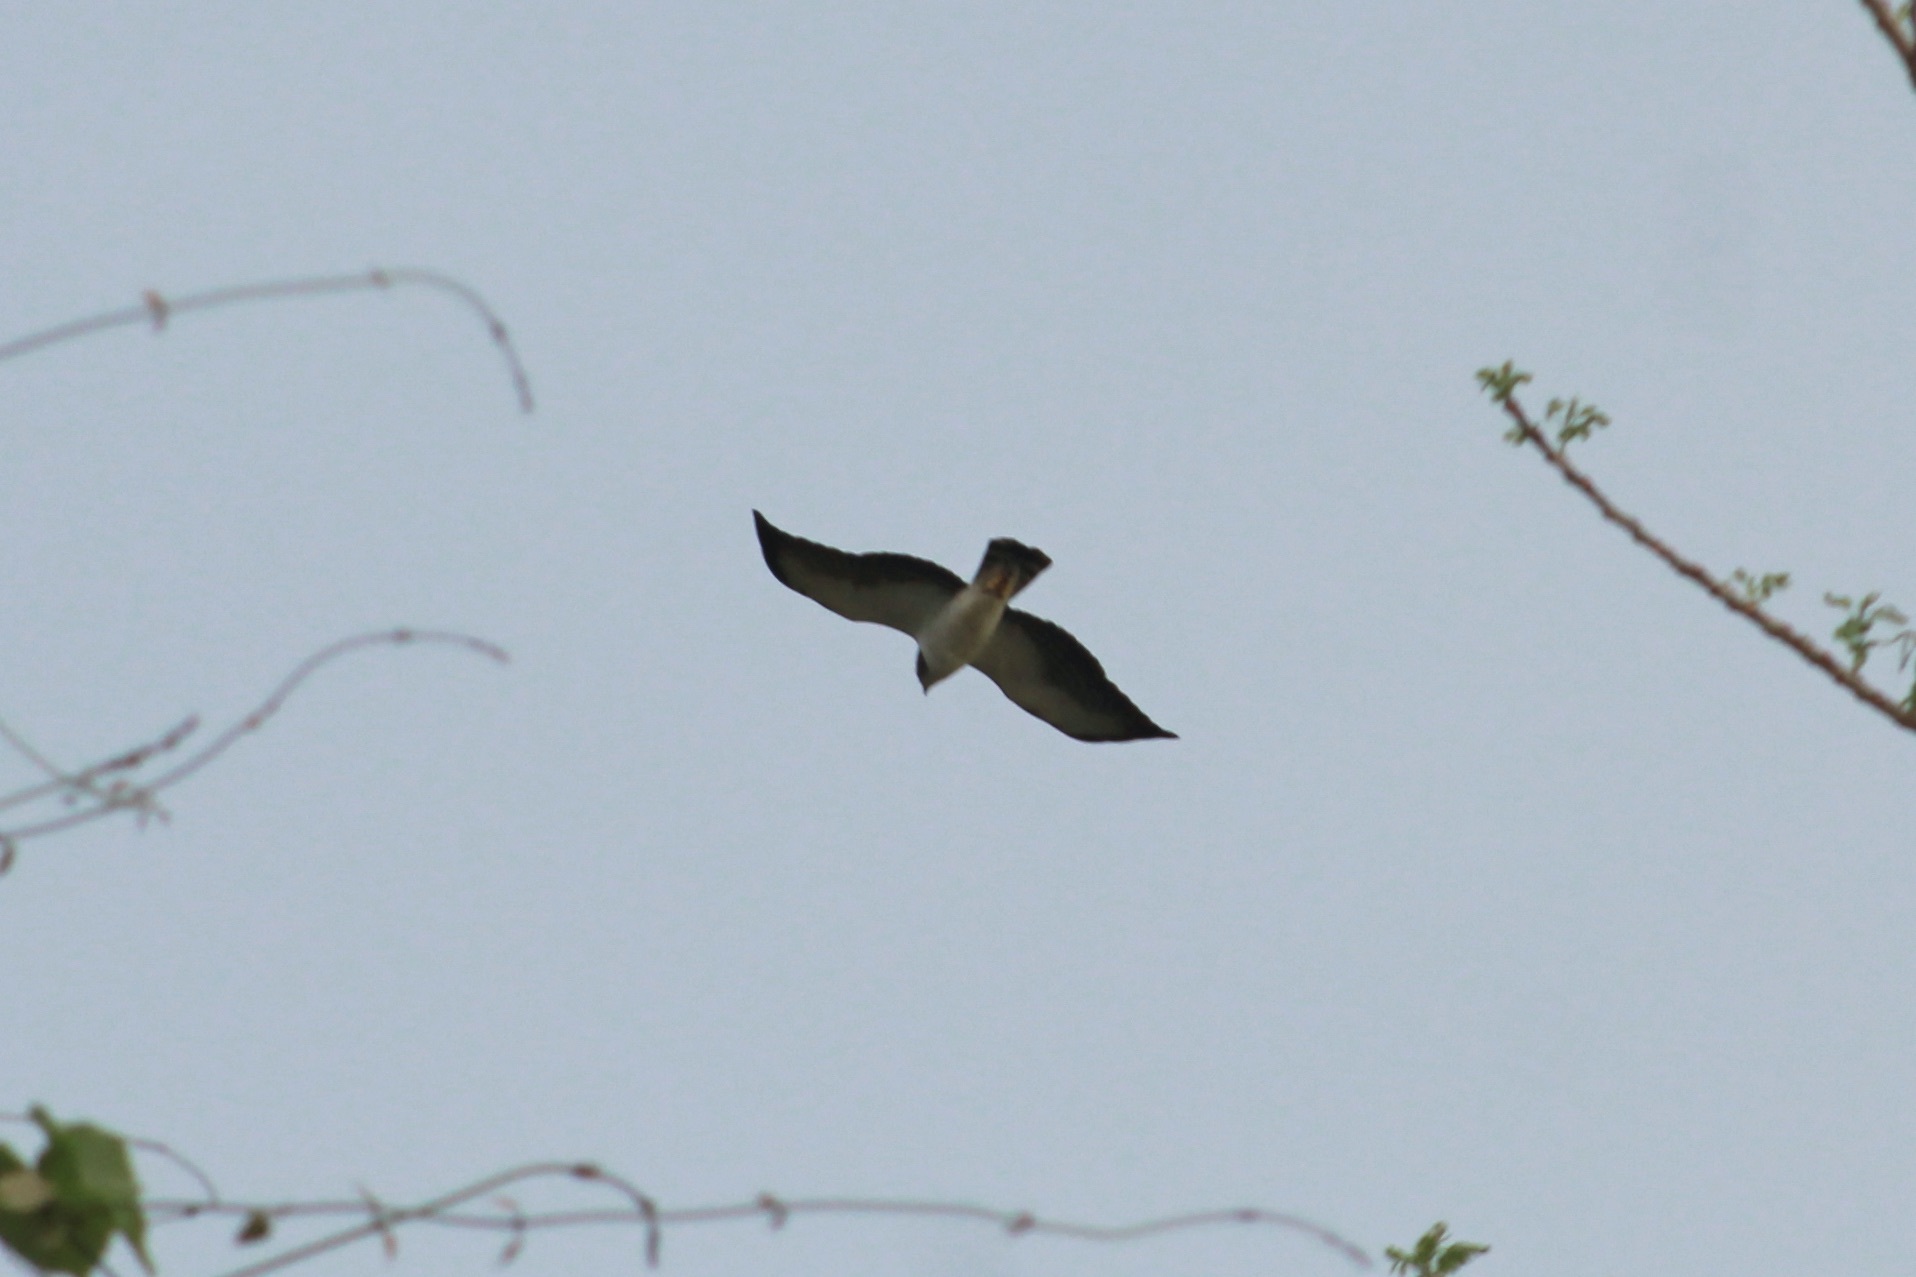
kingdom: Animalia
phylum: Chordata
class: Aves
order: Accipitriformes
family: Accipitridae
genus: Buteo
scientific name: Buteo brachyurus
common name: Short-tailed hawk
